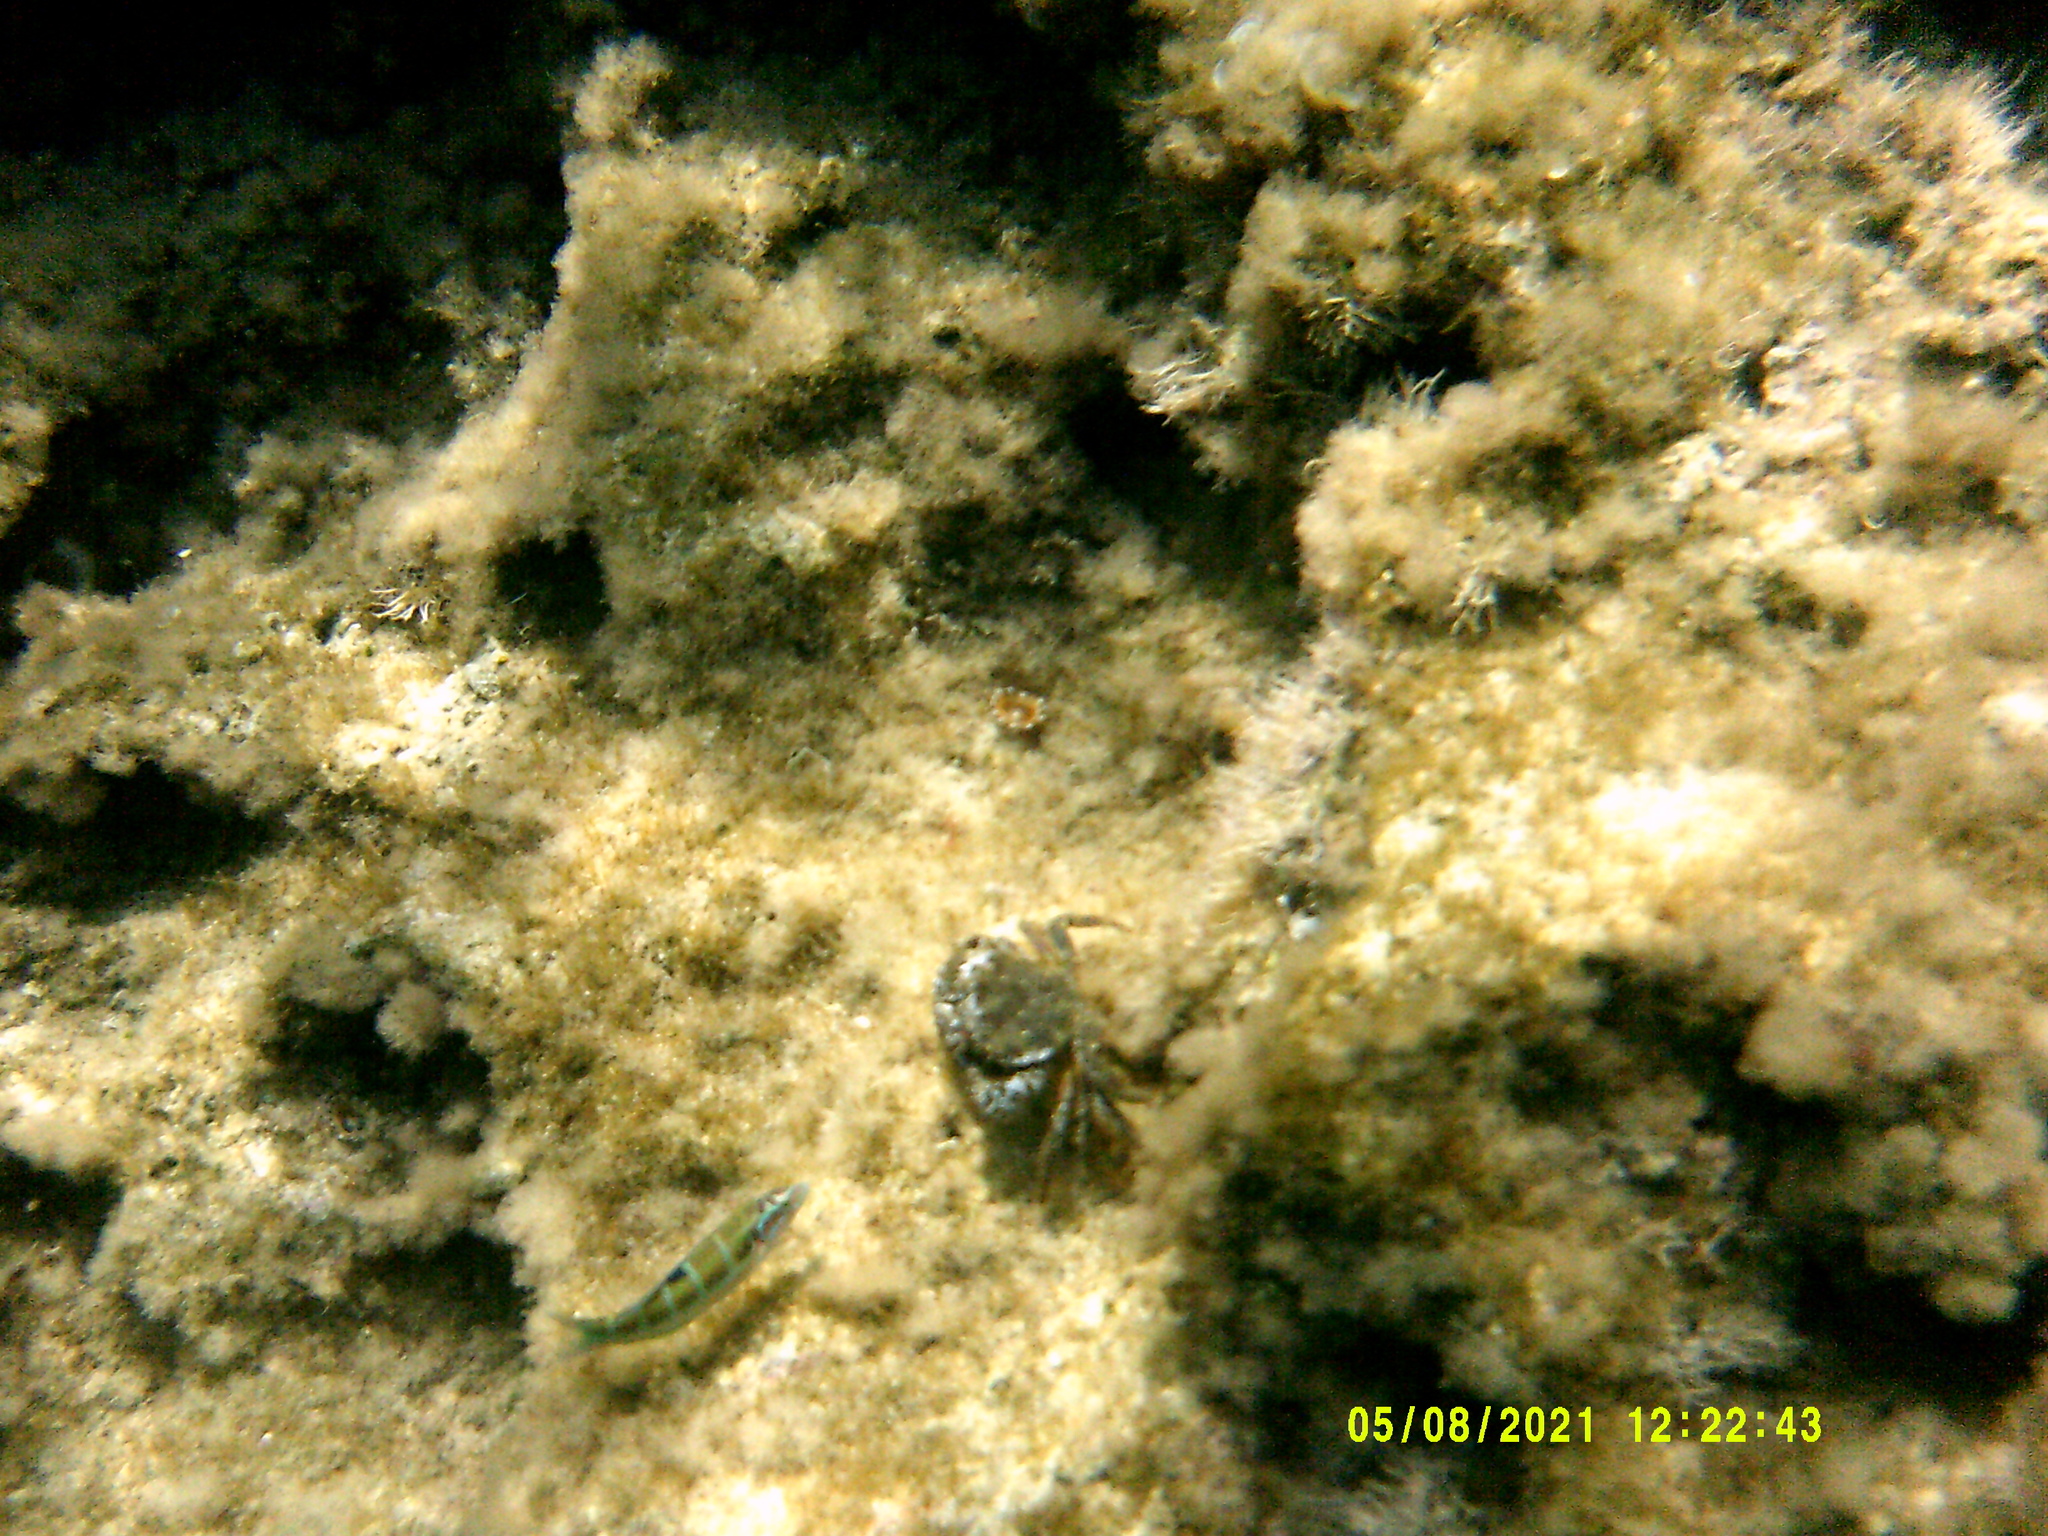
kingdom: Animalia
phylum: Arthropoda
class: Malacostraca
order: Decapoda
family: Eriphiidae
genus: Eriphia
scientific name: Eriphia verrucosa
